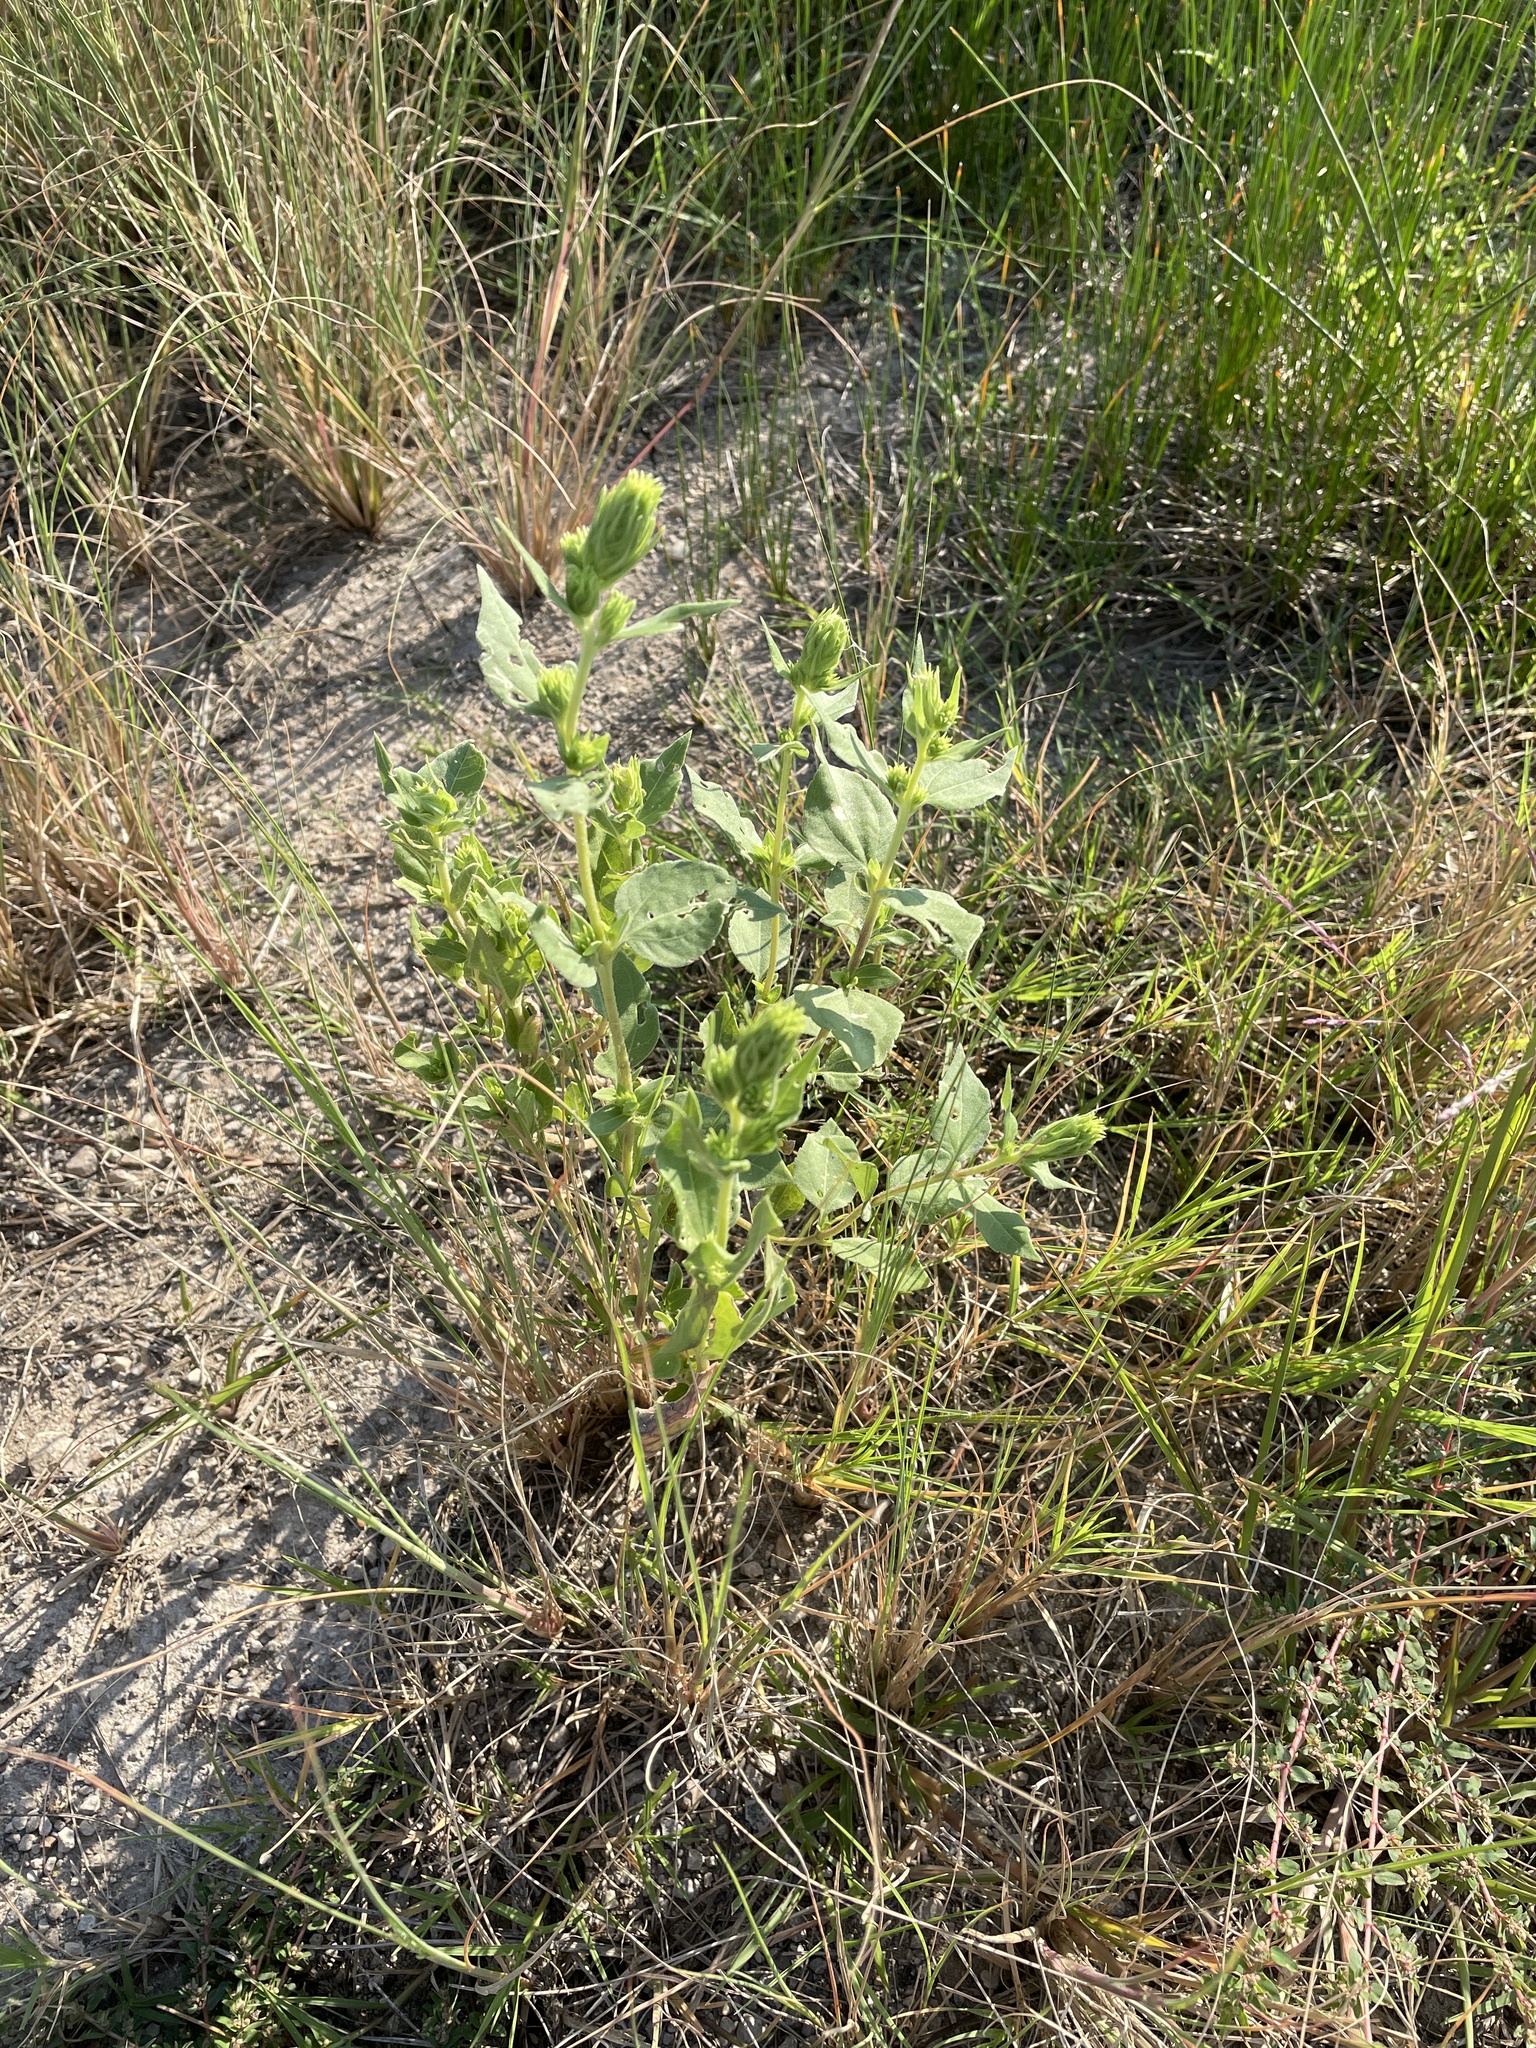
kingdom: Plantae
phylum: Tracheophyta
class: Magnoliopsida
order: Asterales
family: Asteraceae
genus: Iva
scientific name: Iva annua
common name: Marsh-elder
